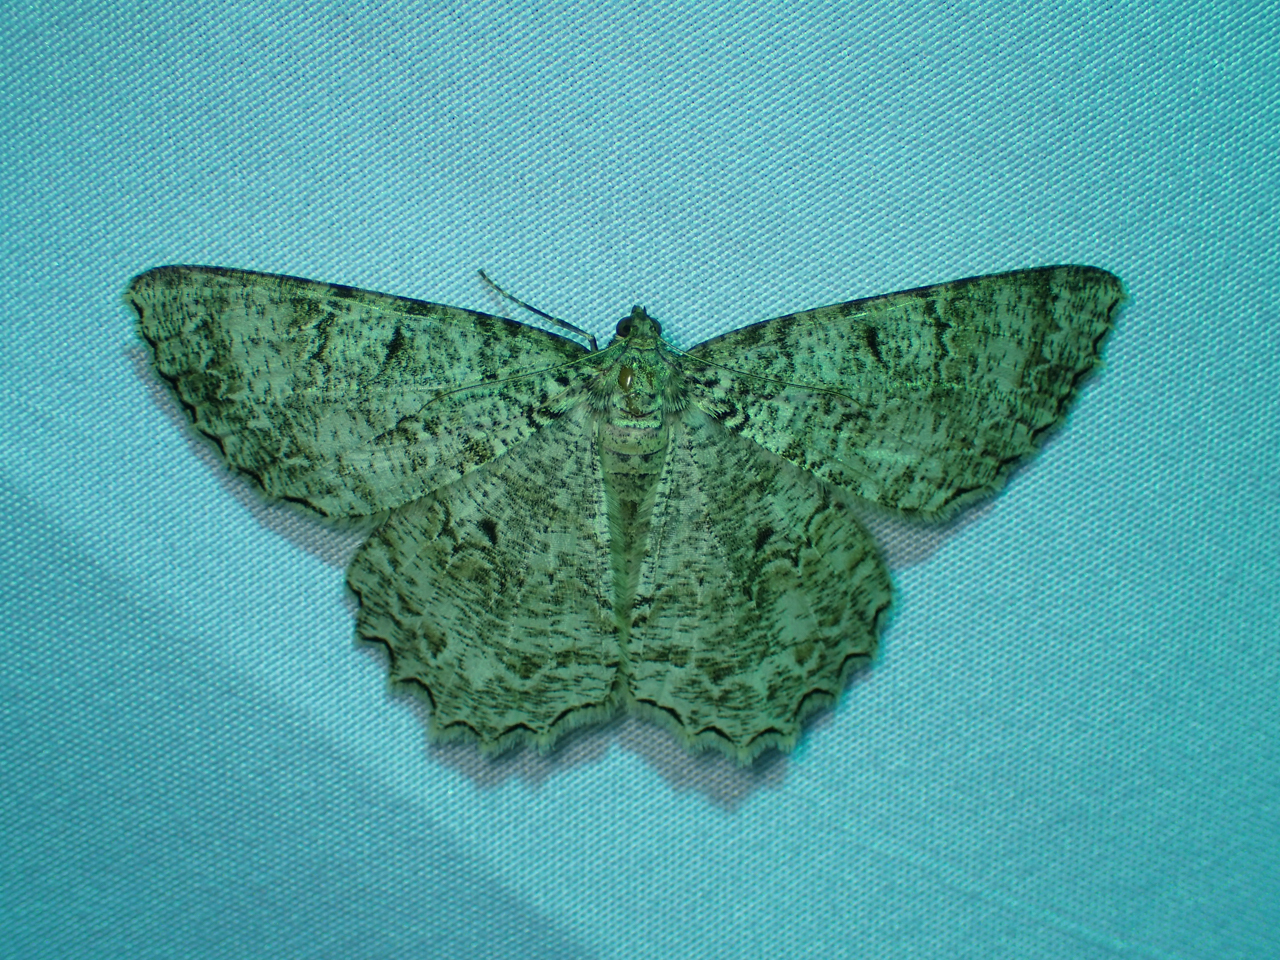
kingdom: Animalia
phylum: Arthropoda
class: Insecta
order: Lepidoptera
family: Geometridae
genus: Epimecis
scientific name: Epimecis hortaria
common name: Tulip-tree beauty
